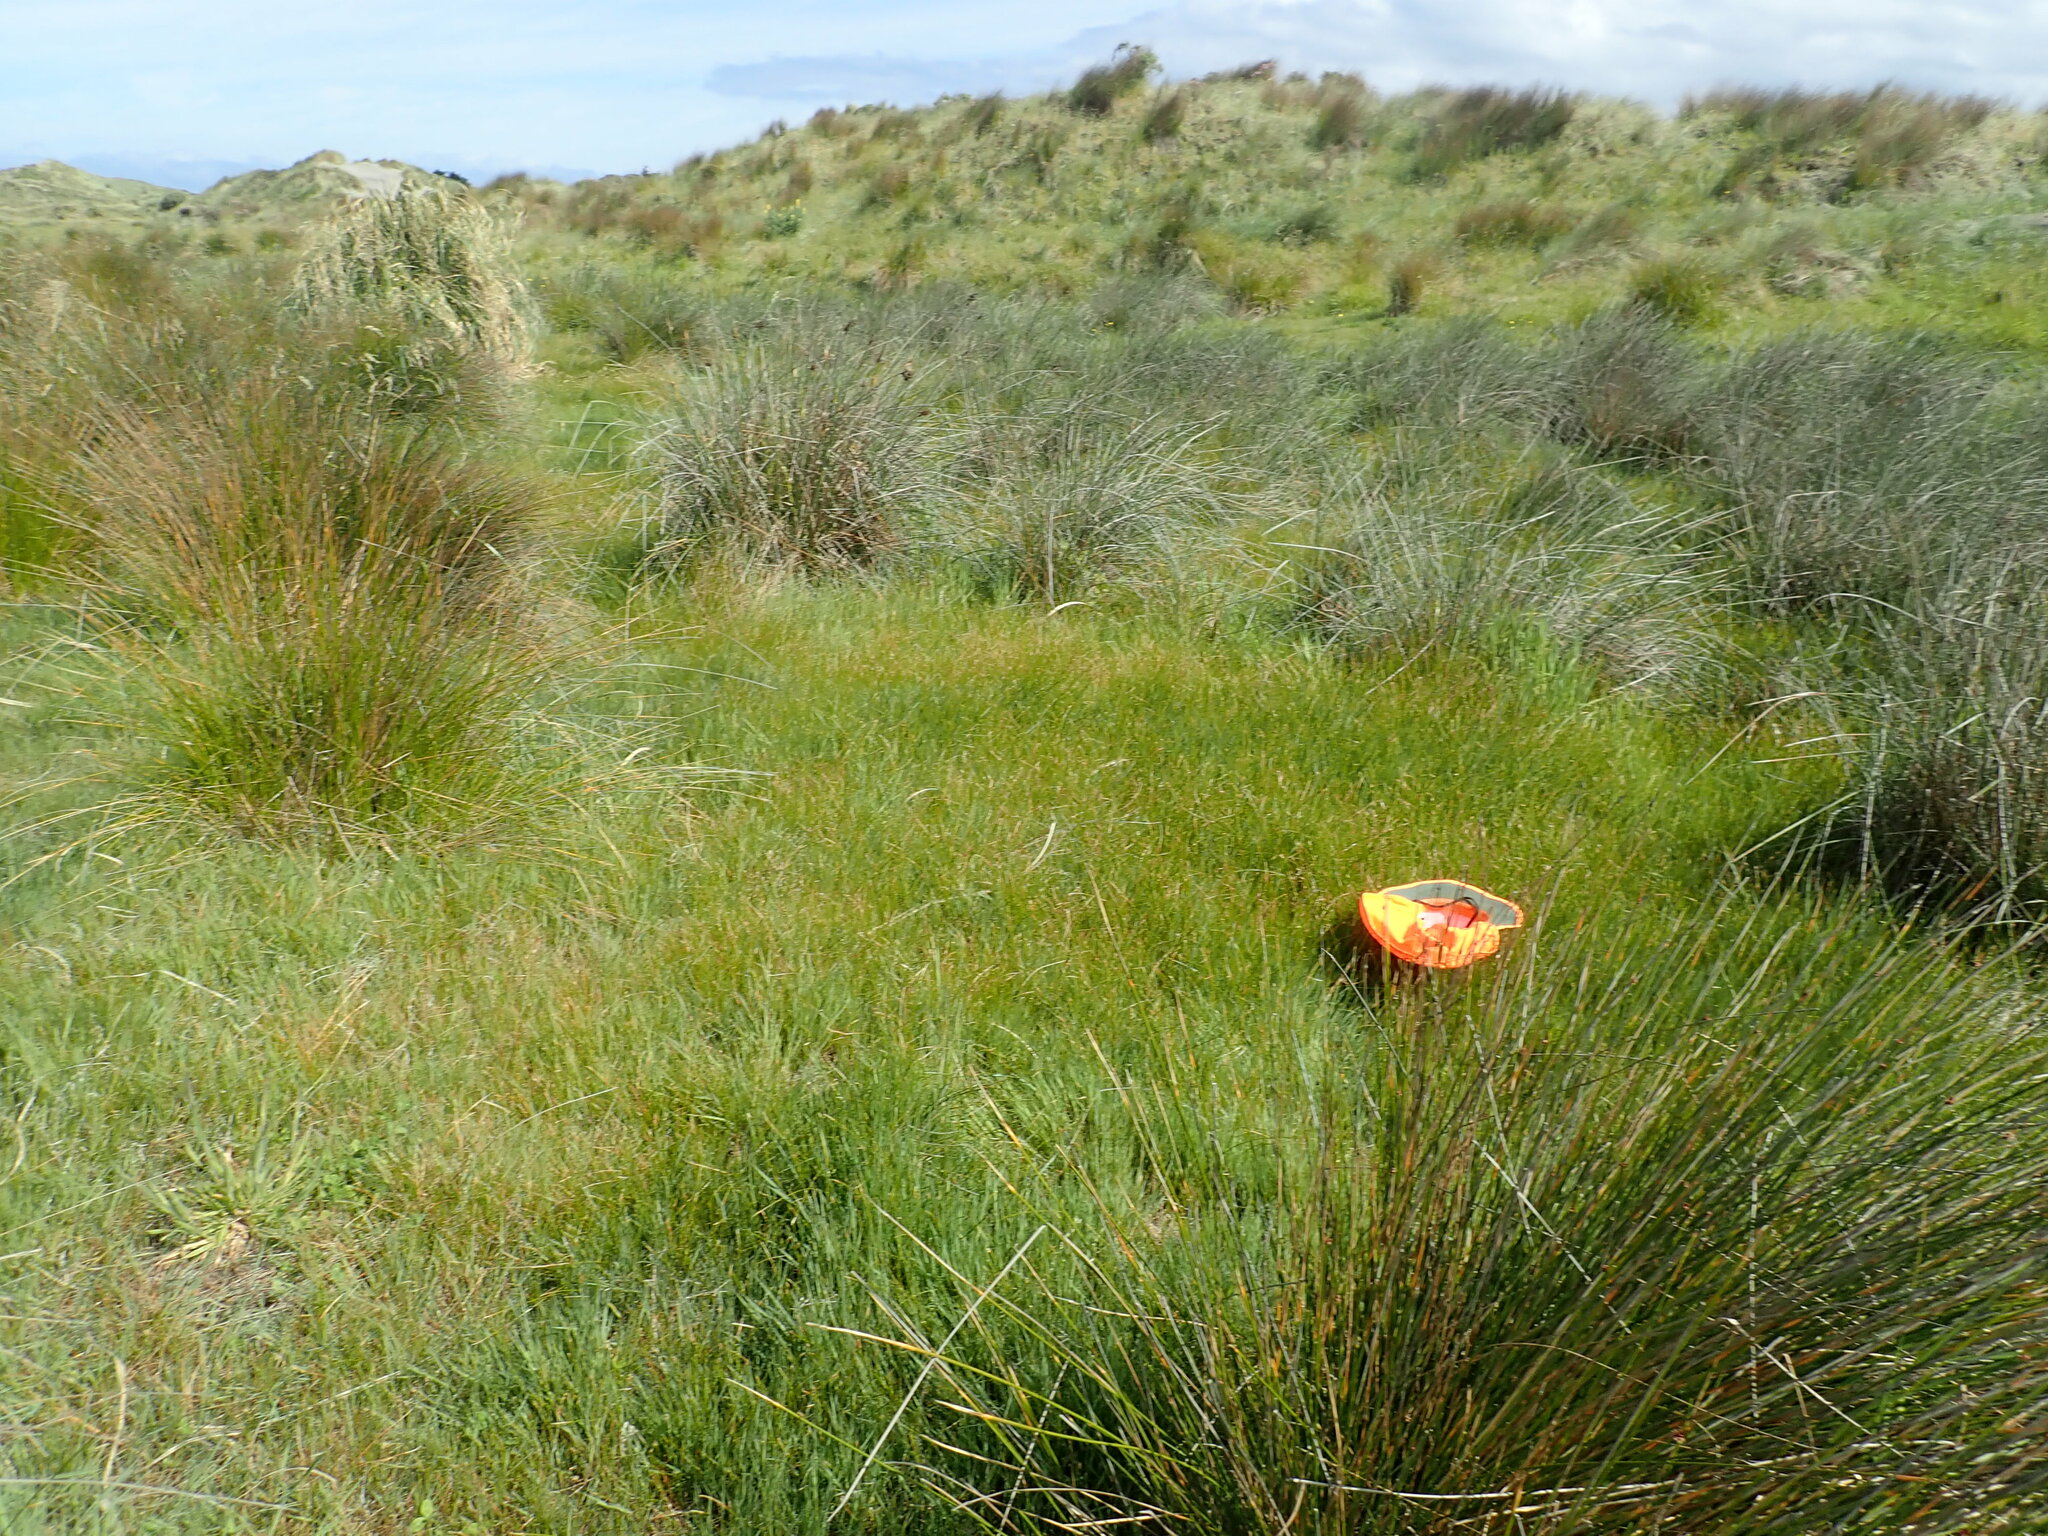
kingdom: Plantae
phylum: Tracheophyta
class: Liliopsida
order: Poales
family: Cyperaceae
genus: Eleocharis
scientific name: Eleocharis acuta
